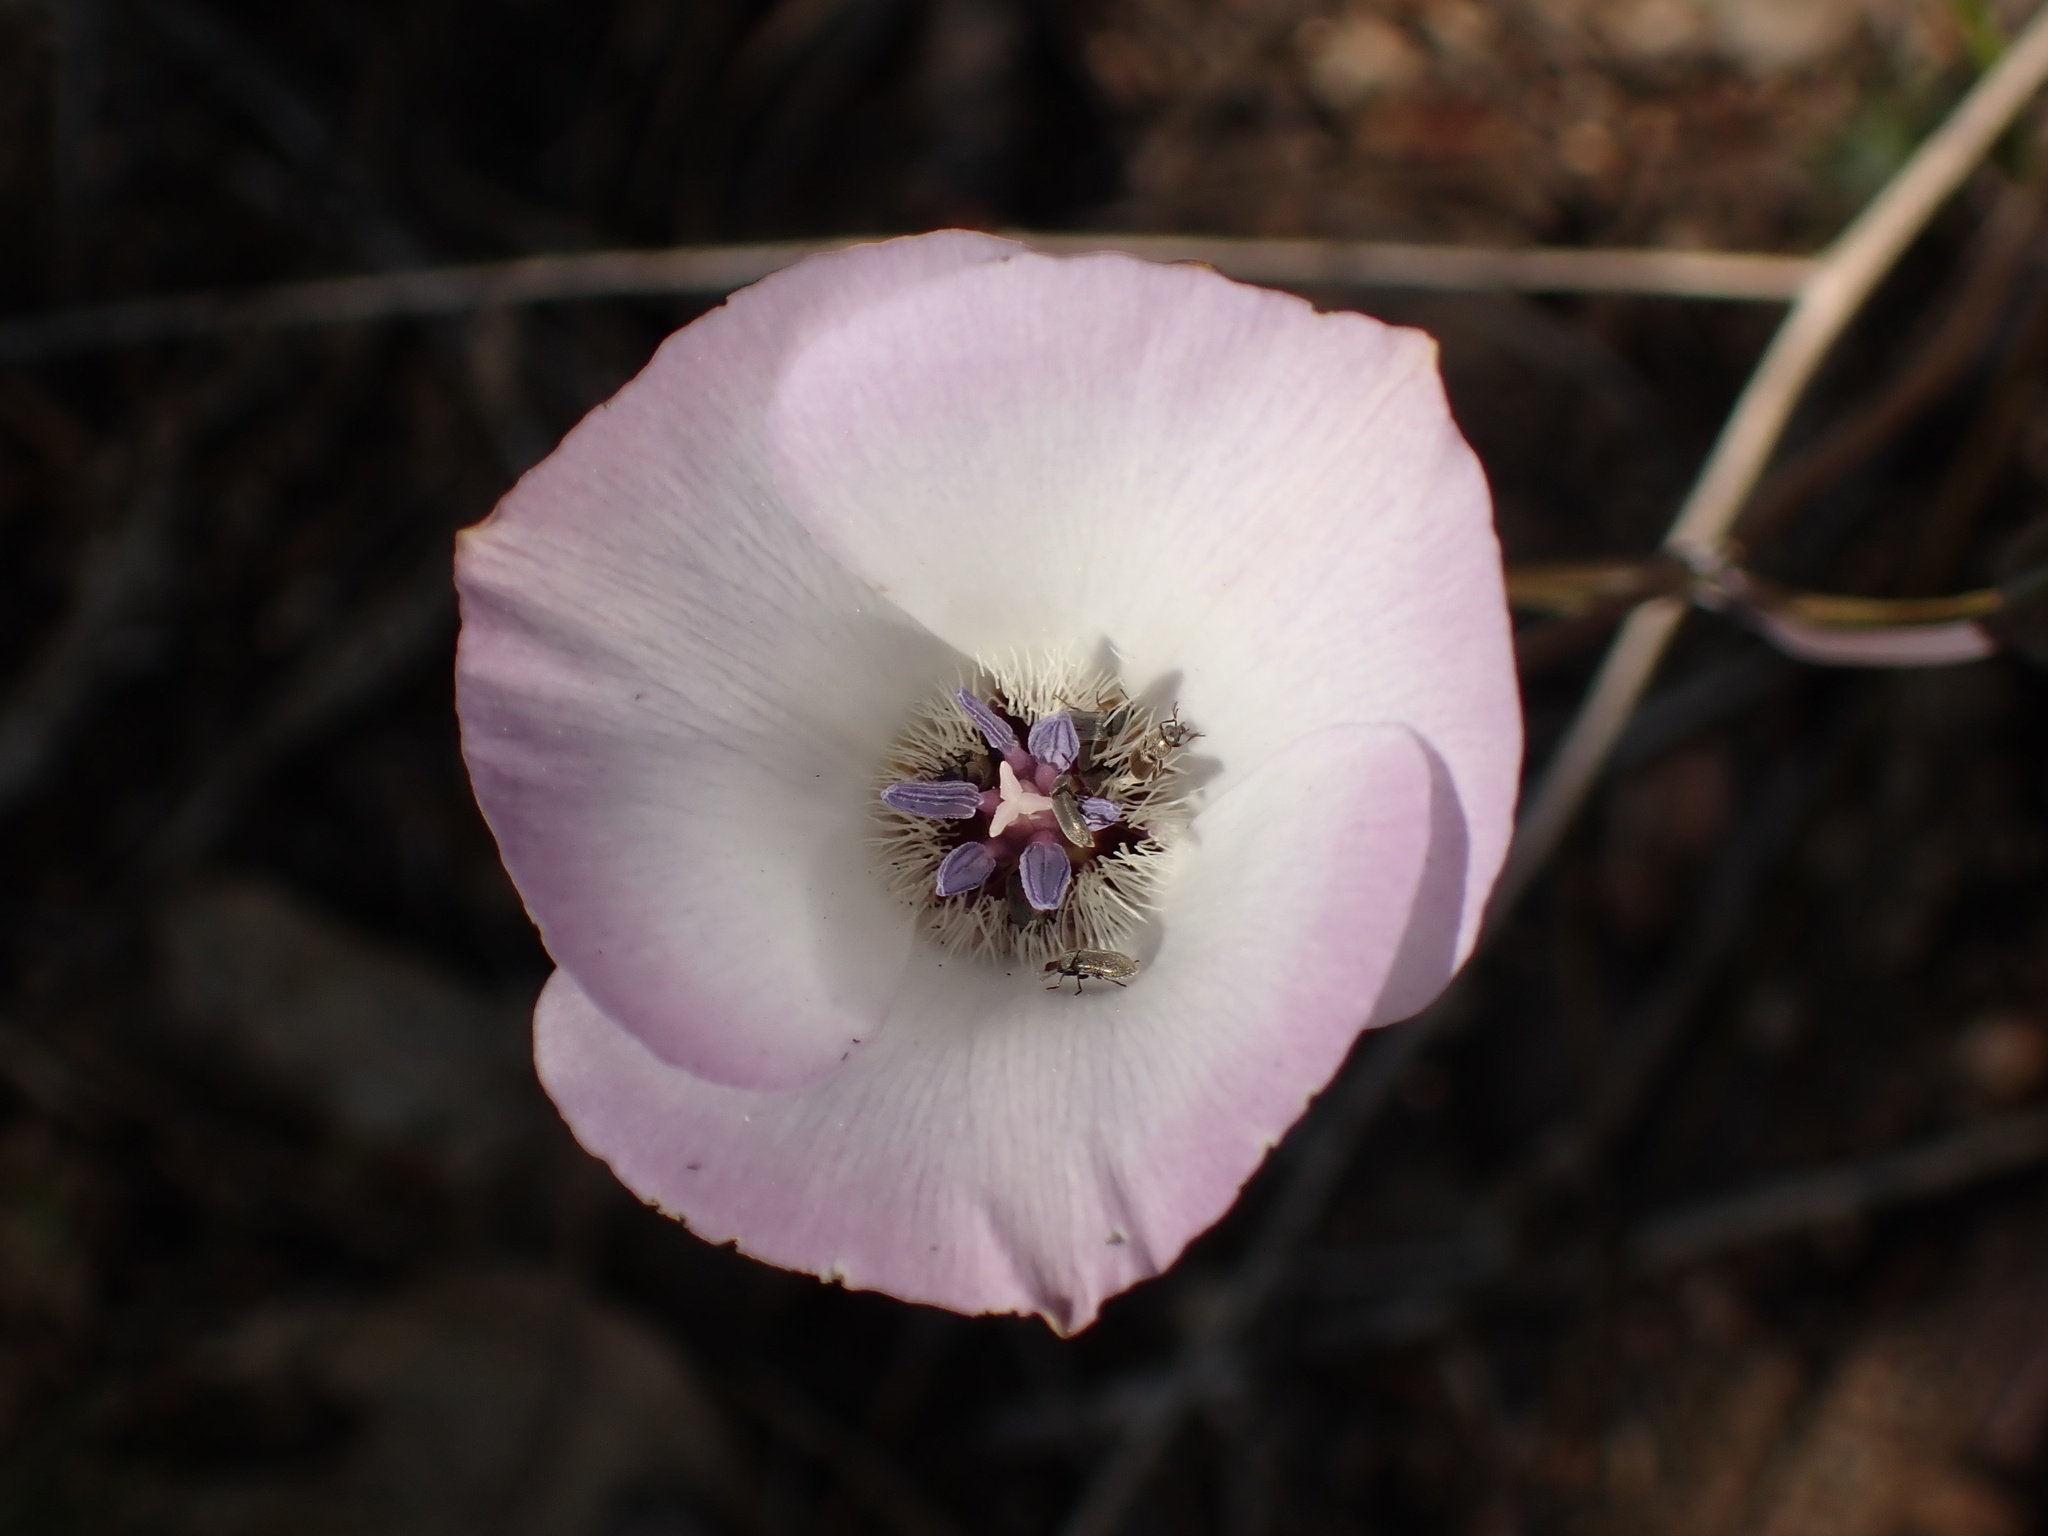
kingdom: Plantae
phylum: Tracheophyta
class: Liliopsida
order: Liliales
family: Liliaceae
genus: Calochortus
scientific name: Calochortus invenustus
